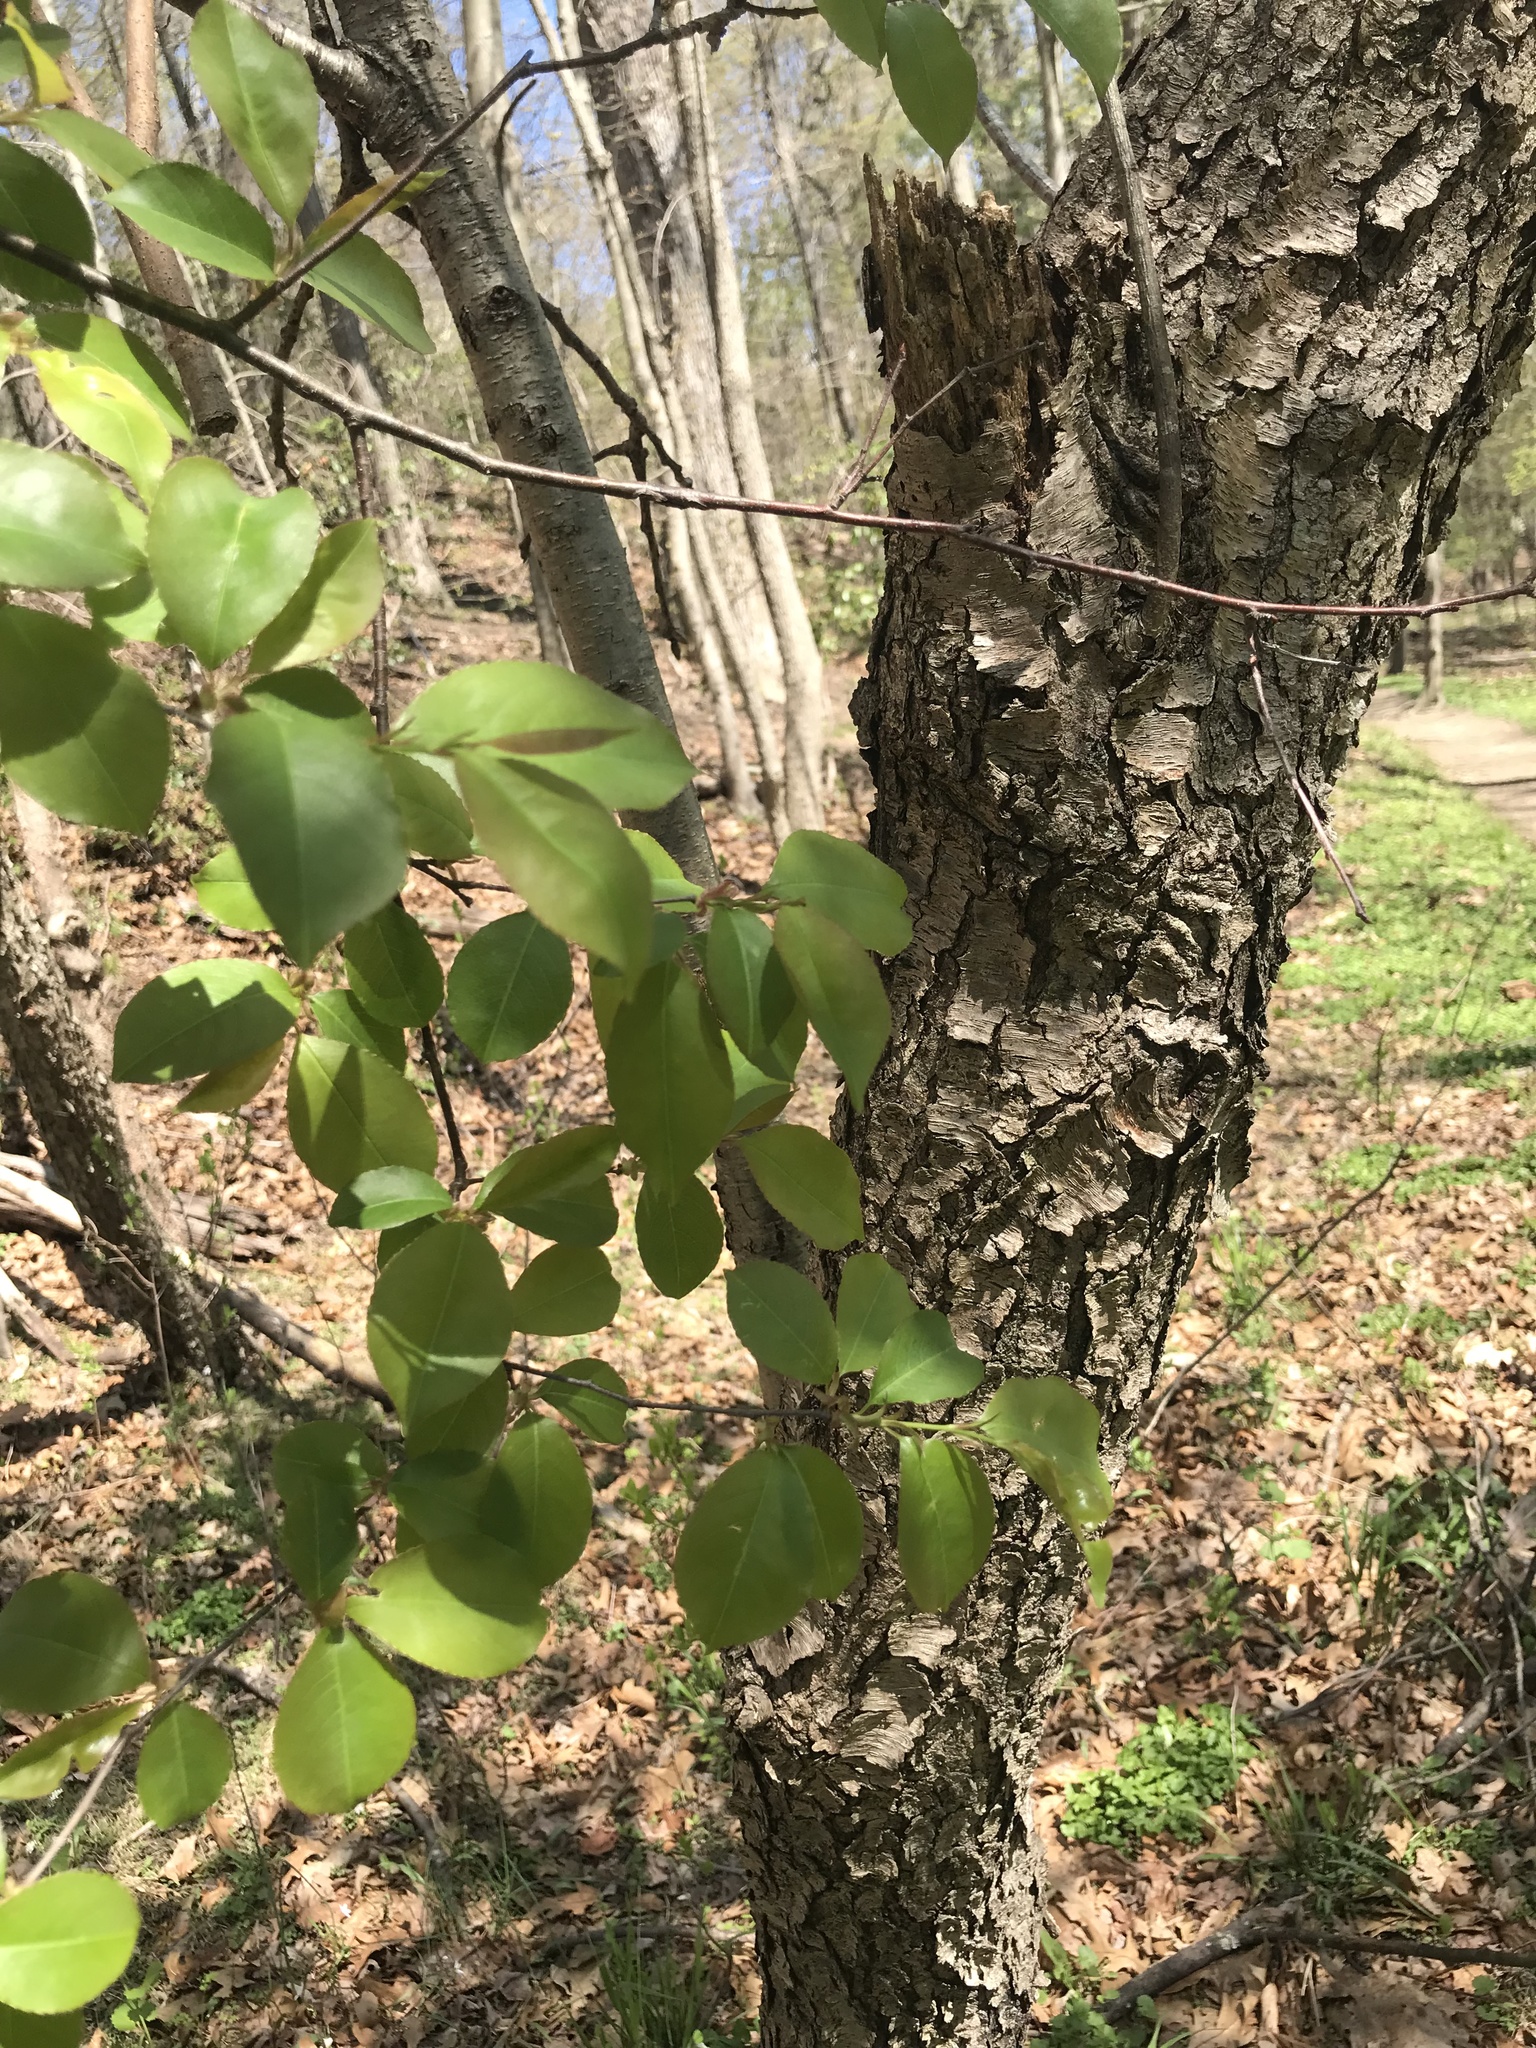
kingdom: Plantae
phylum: Tracheophyta
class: Magnoliopsida
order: Rosales
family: Rosaceae
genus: Prunus
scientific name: Prunus serotina
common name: Black cherry
